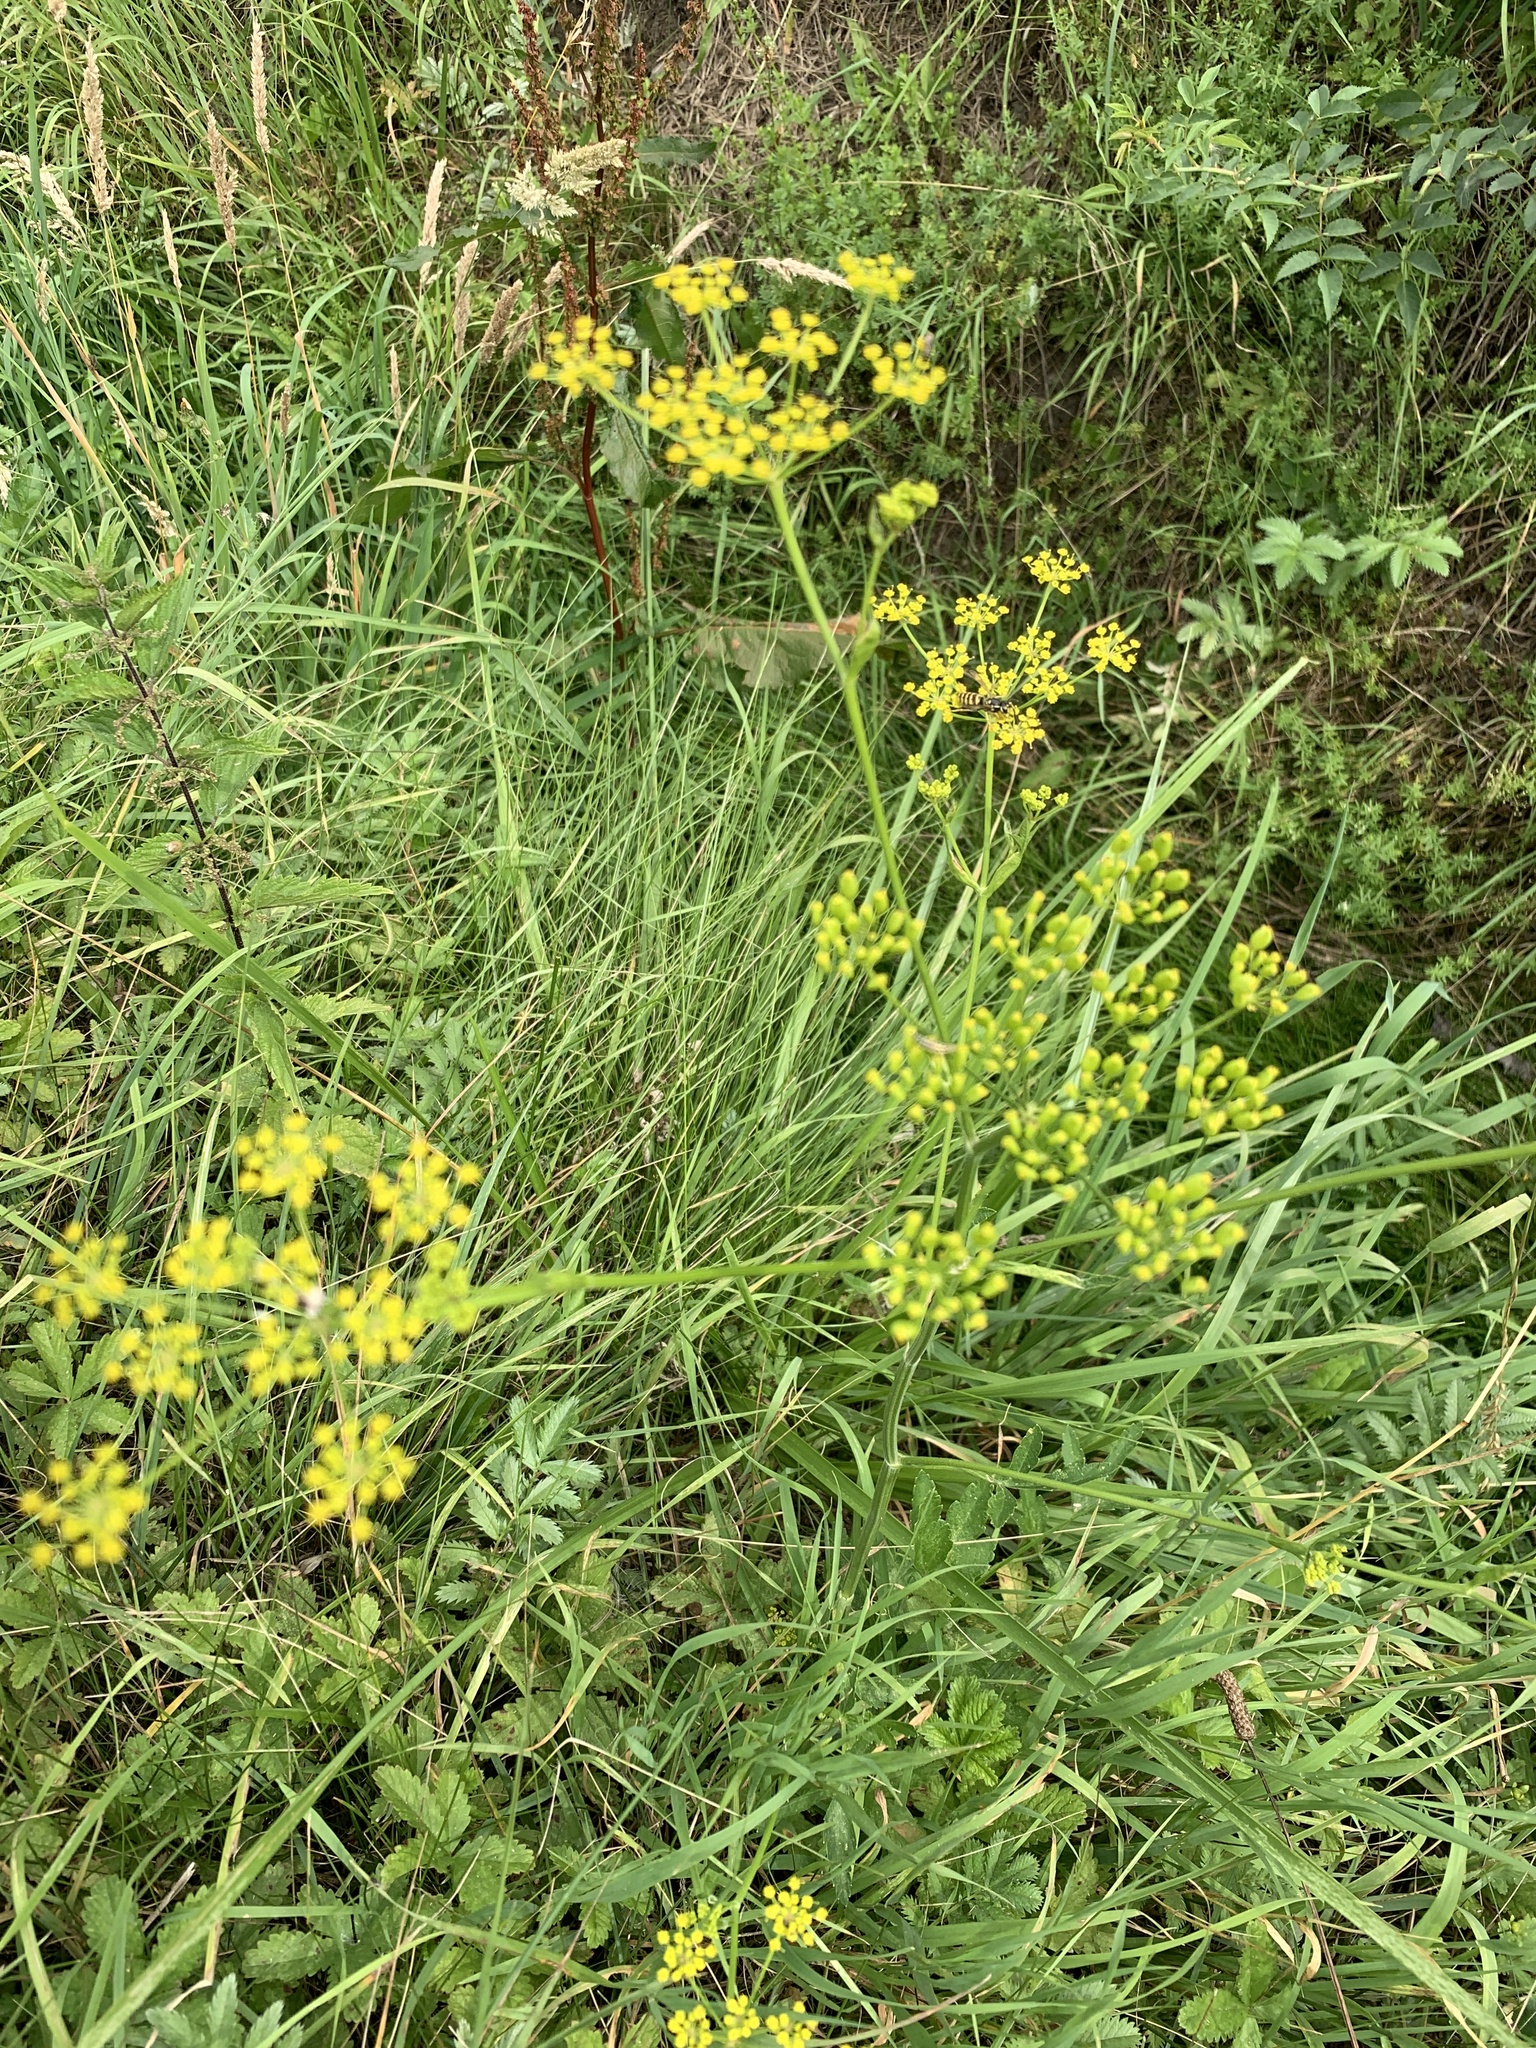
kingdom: Plantae
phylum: Tracheophyta
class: Magnoliopsida
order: Apiales
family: Apiaceae
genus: Pastinaca
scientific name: Pastinaca sativa
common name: Wild parsnip
